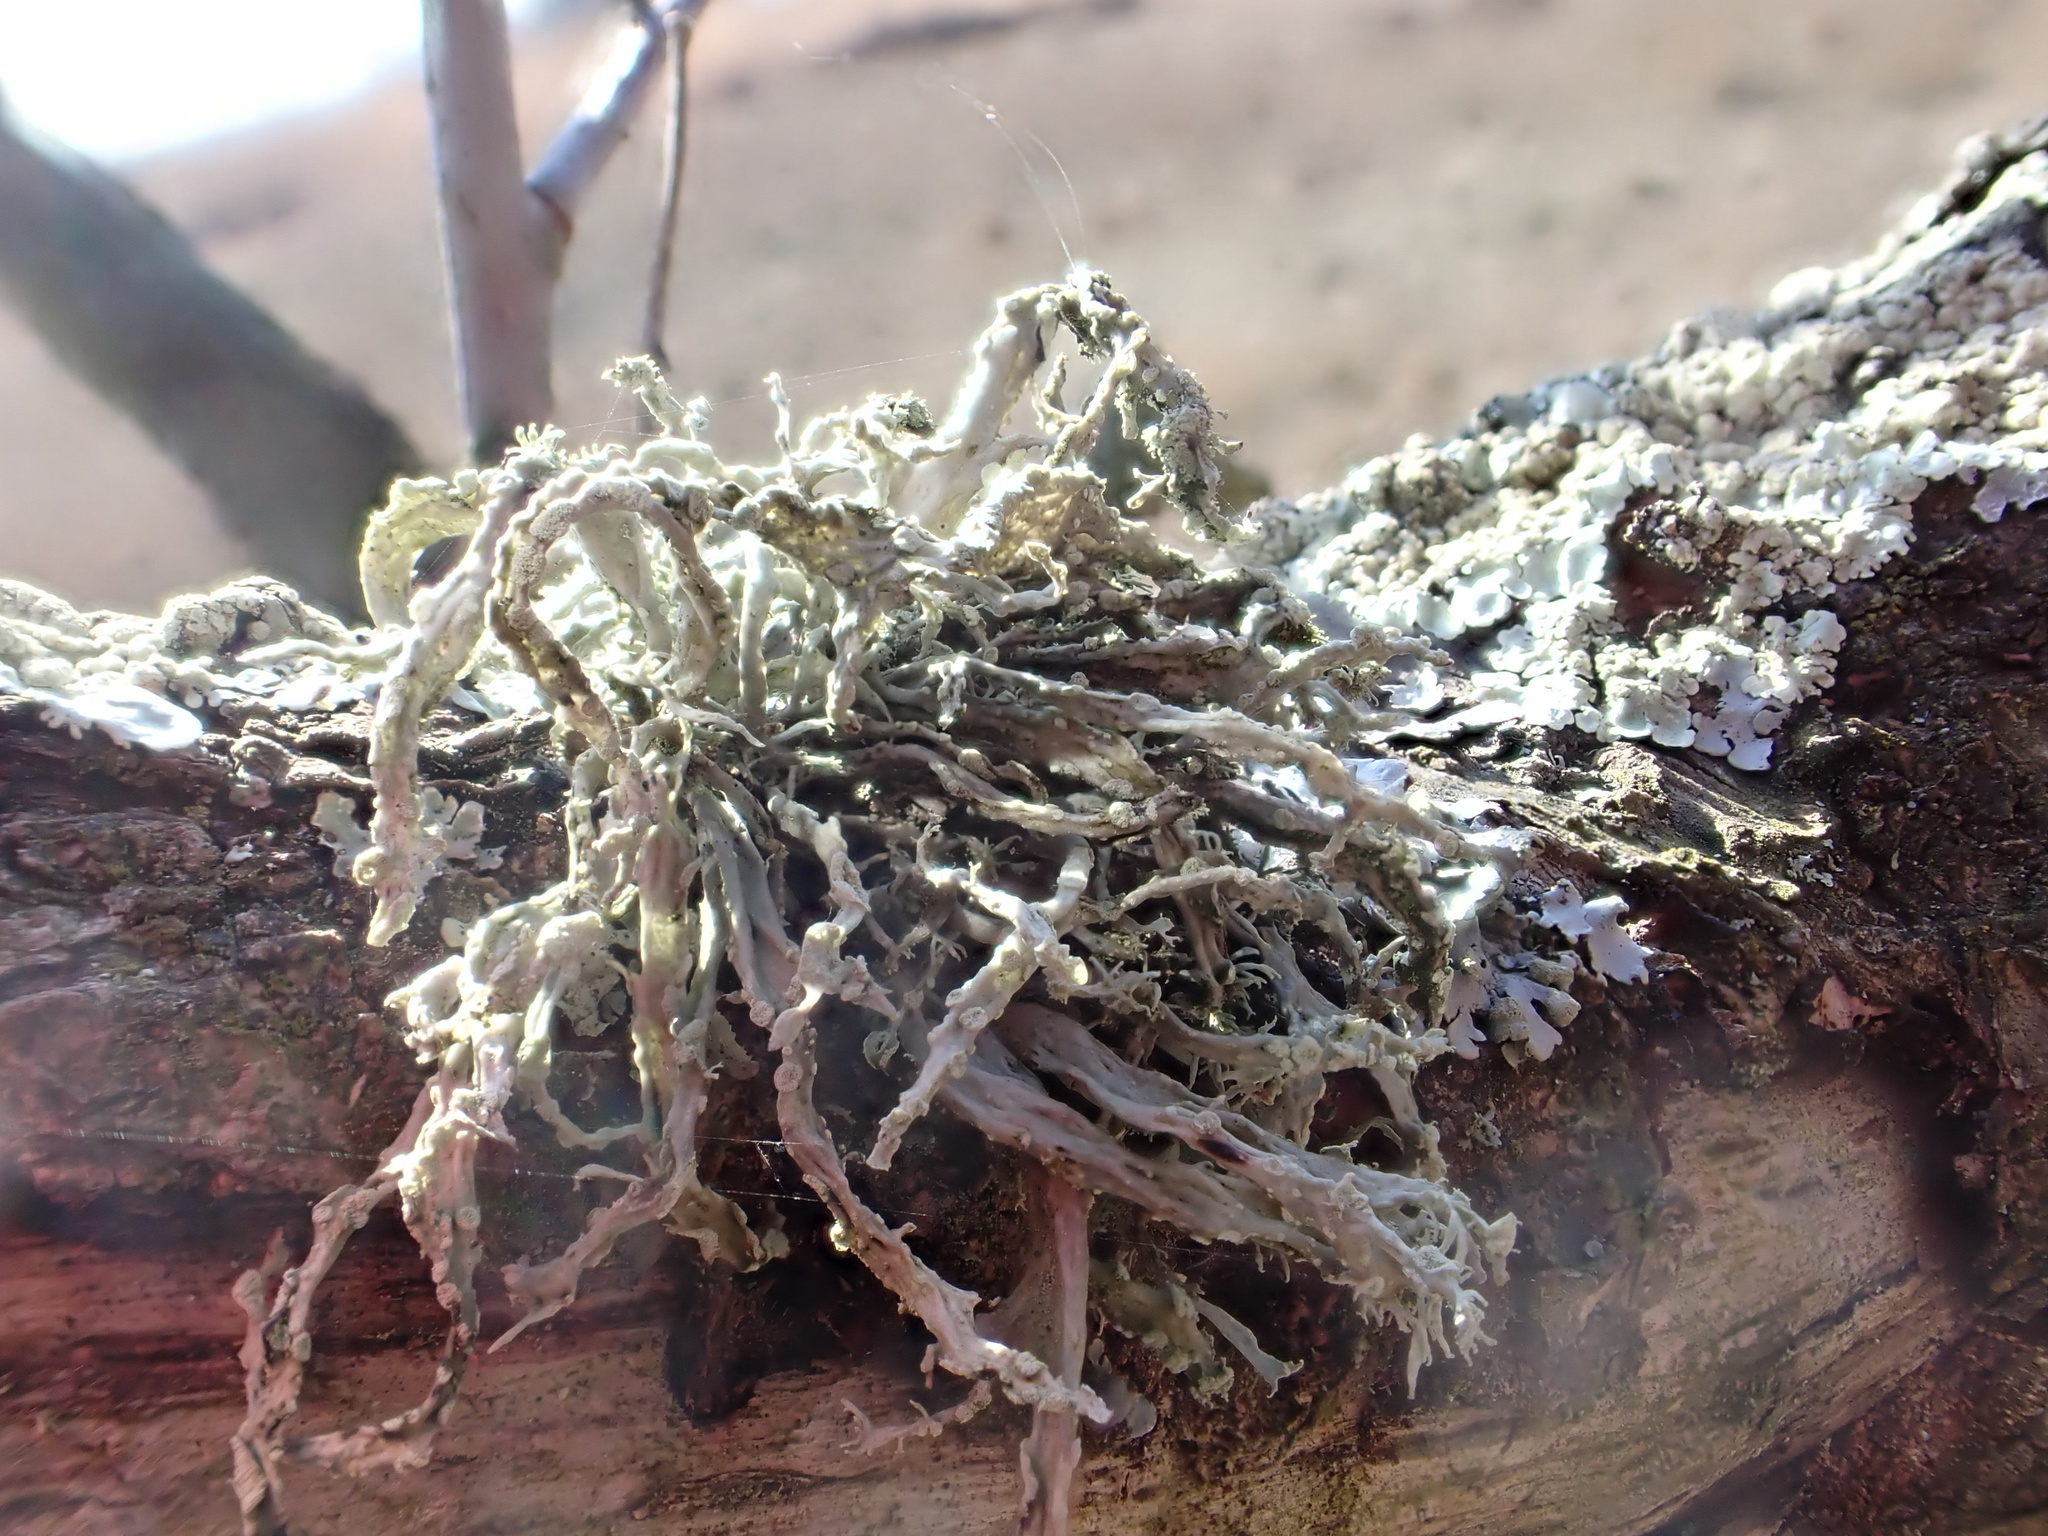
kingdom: Fungi
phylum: Ascomycota
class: Lecanoromycetes
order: Lecanorales
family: Ramalinaceae
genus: Ramalina
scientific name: Ramalina farinacea
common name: Farinose cartilage lichen
